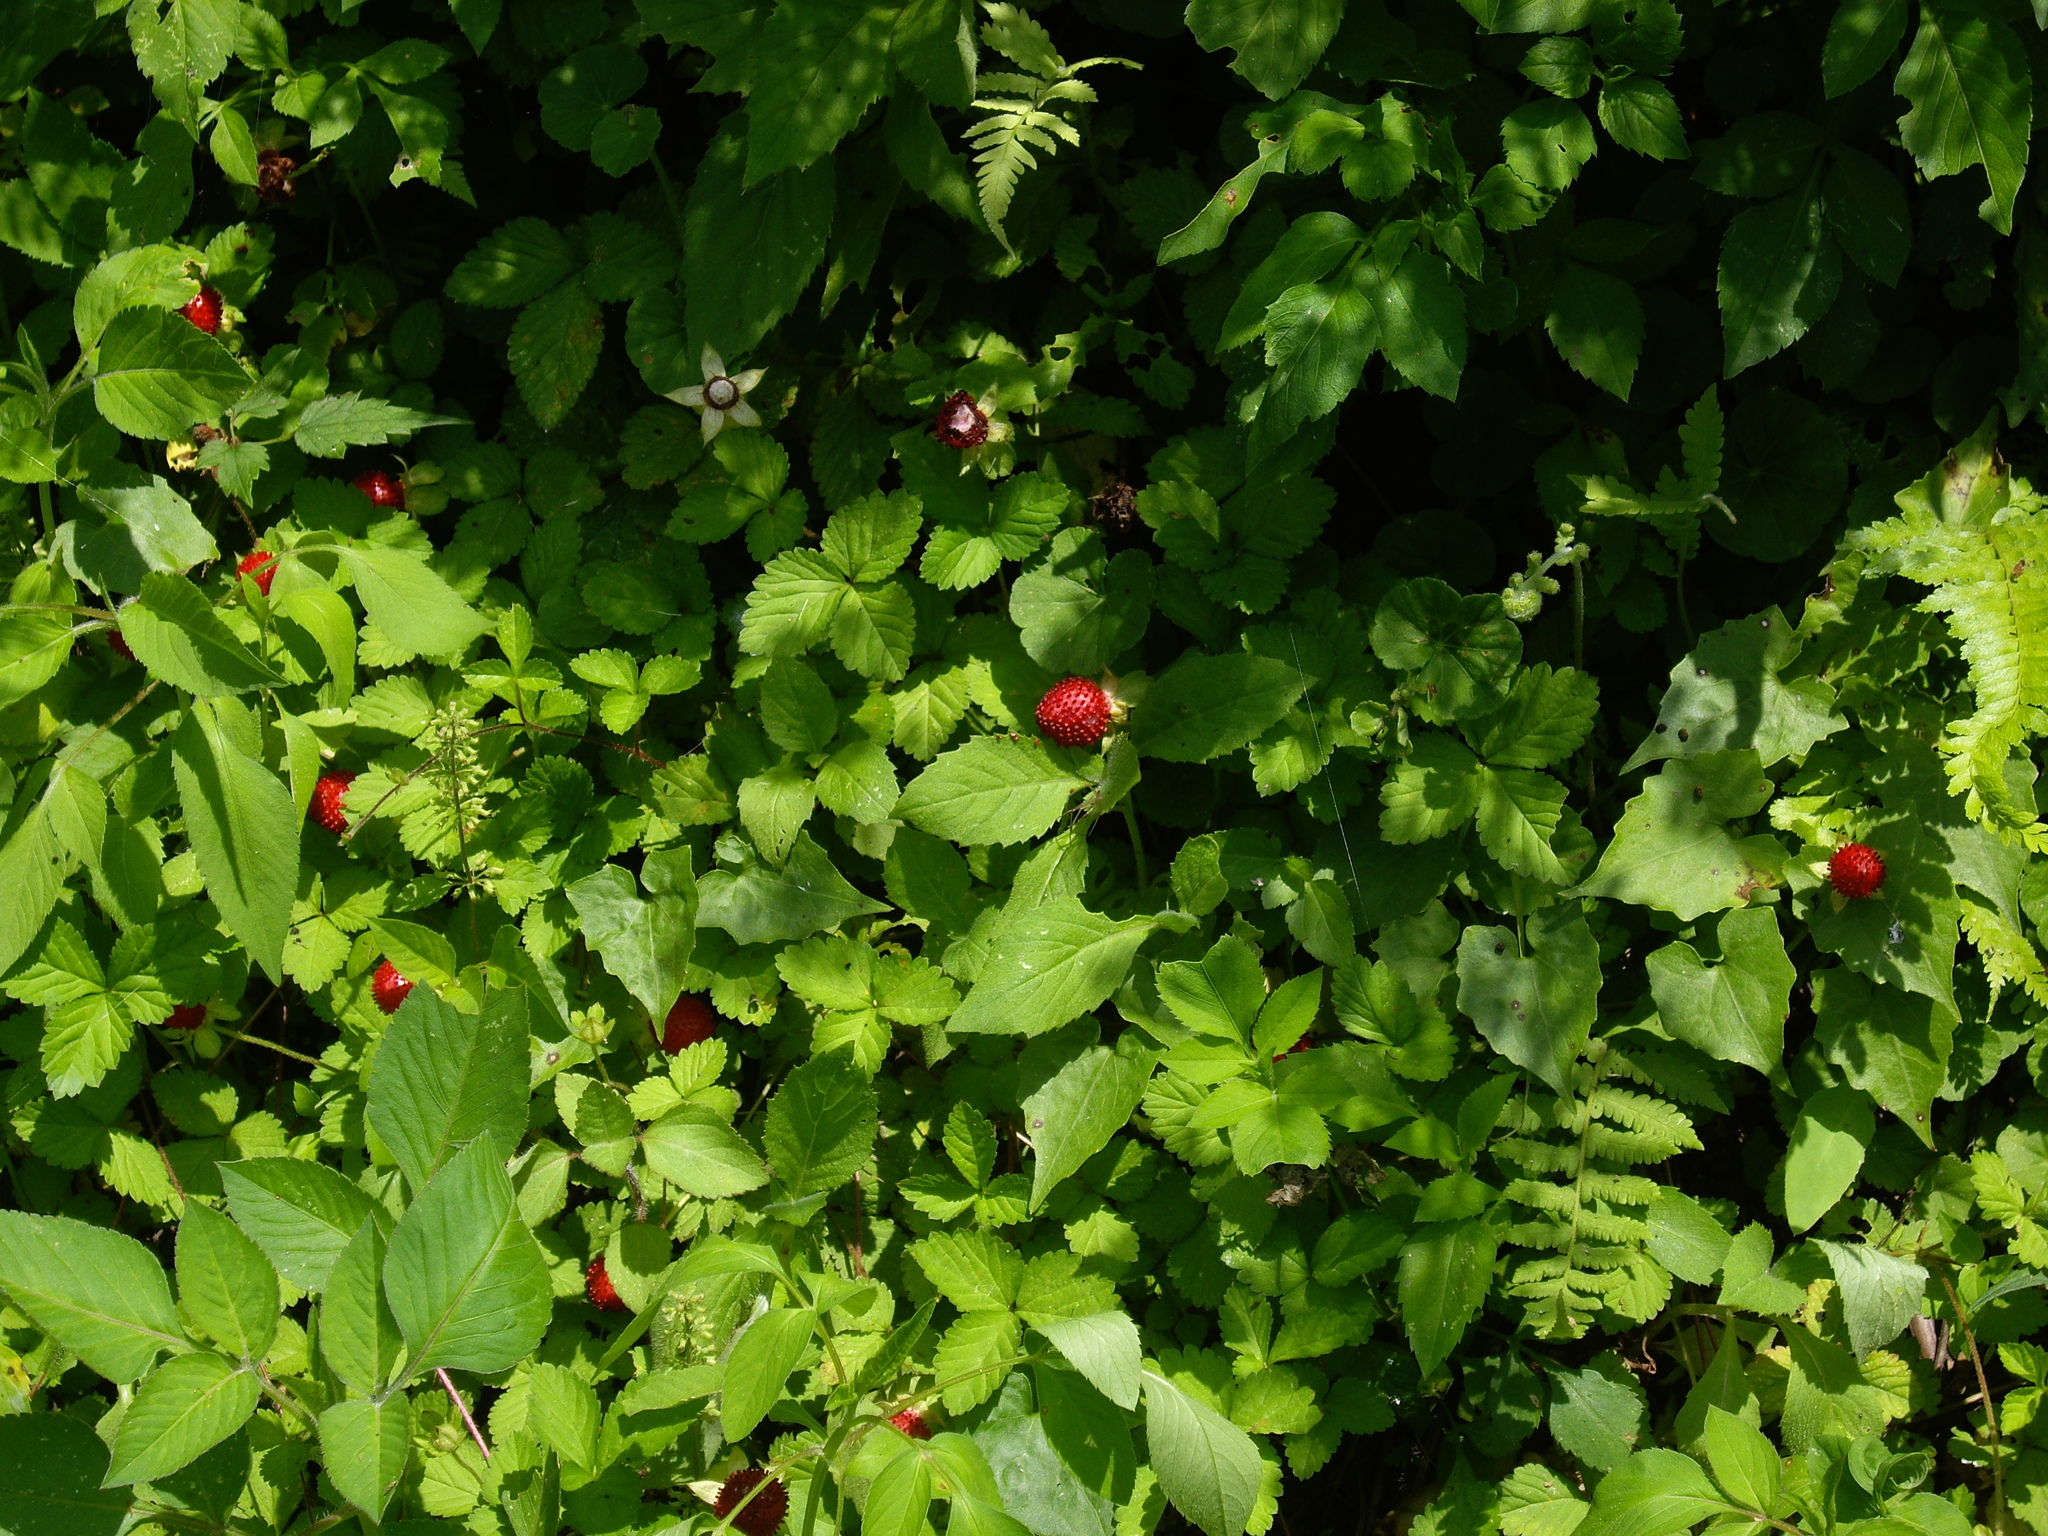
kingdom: Plantae
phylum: Tracheophyta
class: Magnoliopsida
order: Rosales
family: Rosaceae
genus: Potentilla
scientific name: Potentilla indica
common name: Yellow-flowered strawberry
